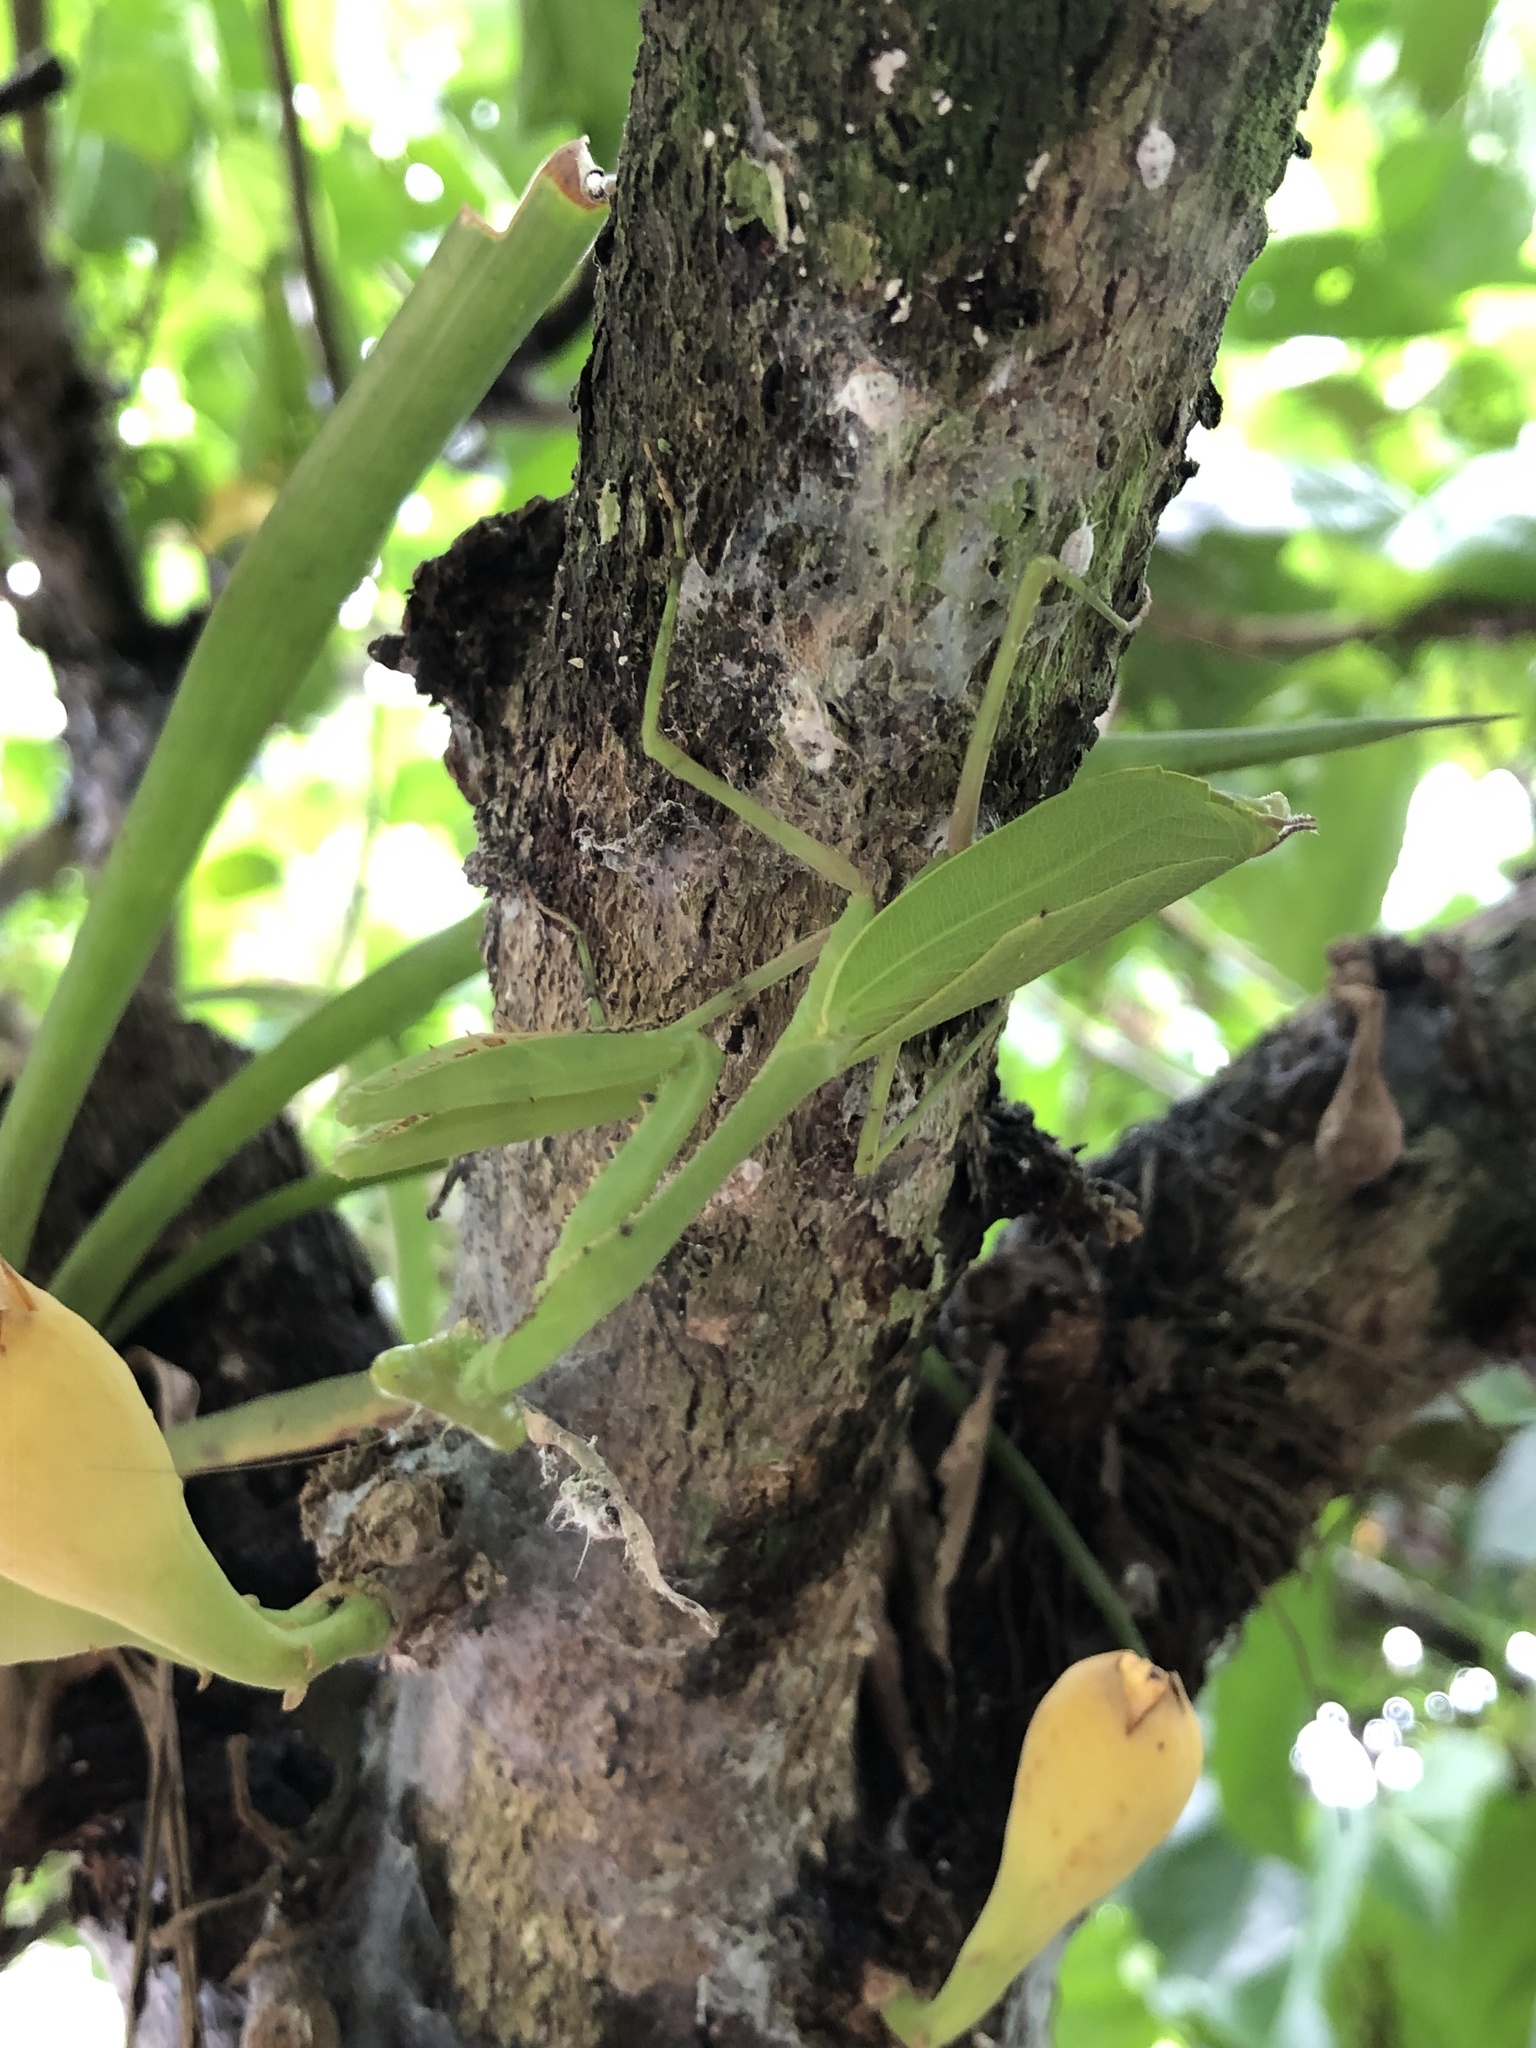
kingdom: Animalia
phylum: Arthropoda
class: Insecta
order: Mantodea
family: Mantidae
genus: Stagmomantis
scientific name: Stagmomantis theophila
